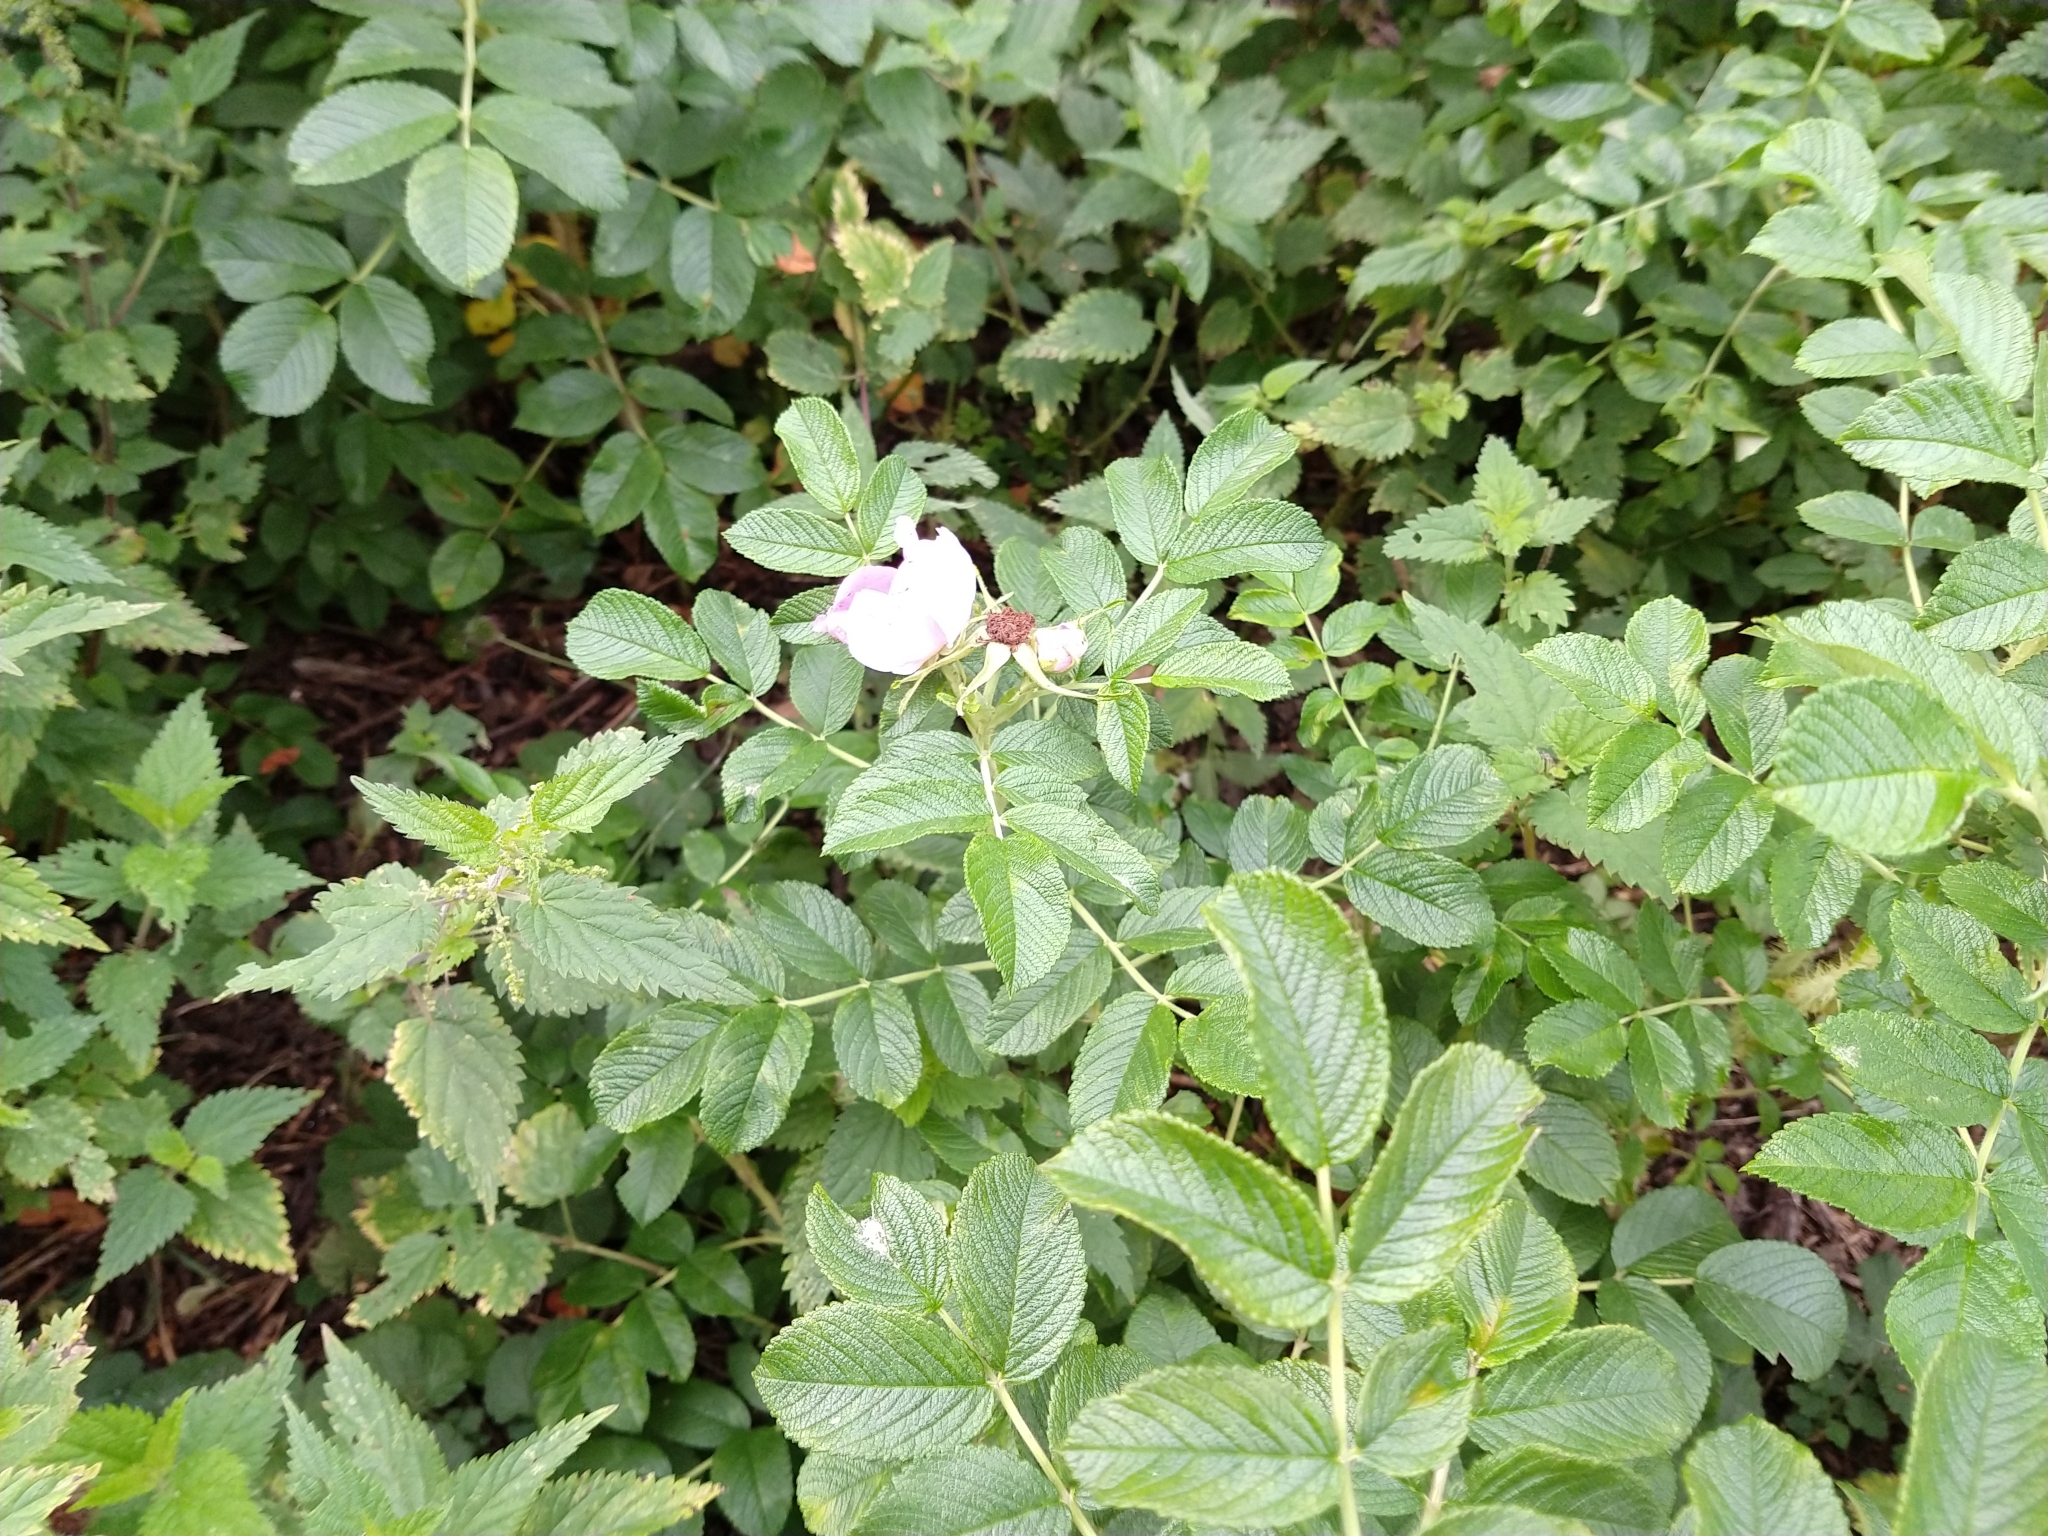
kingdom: Plantae
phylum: Tracheophyta
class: Magnoliopsida
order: Rosales
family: Rosaceae
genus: Rosa
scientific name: Rosa rugosa
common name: Japanese rose
